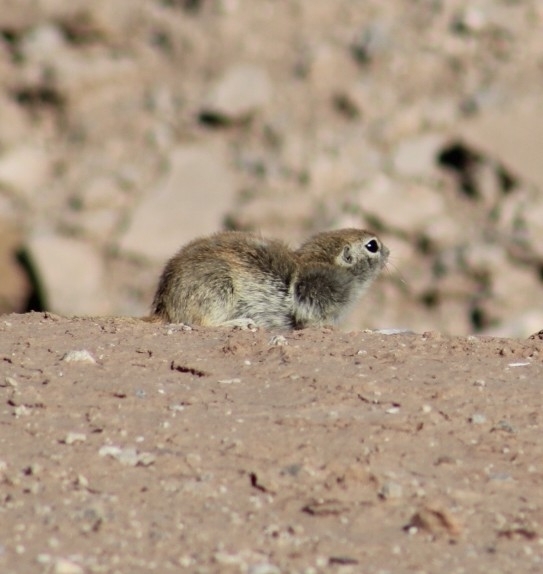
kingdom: Animalia
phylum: Chordata
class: Mammalia
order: Rodentia
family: Sciuridae
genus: Xerospermophilus
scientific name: Xerospermophilus tereticaudus
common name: Round-tailed ground squirrel
